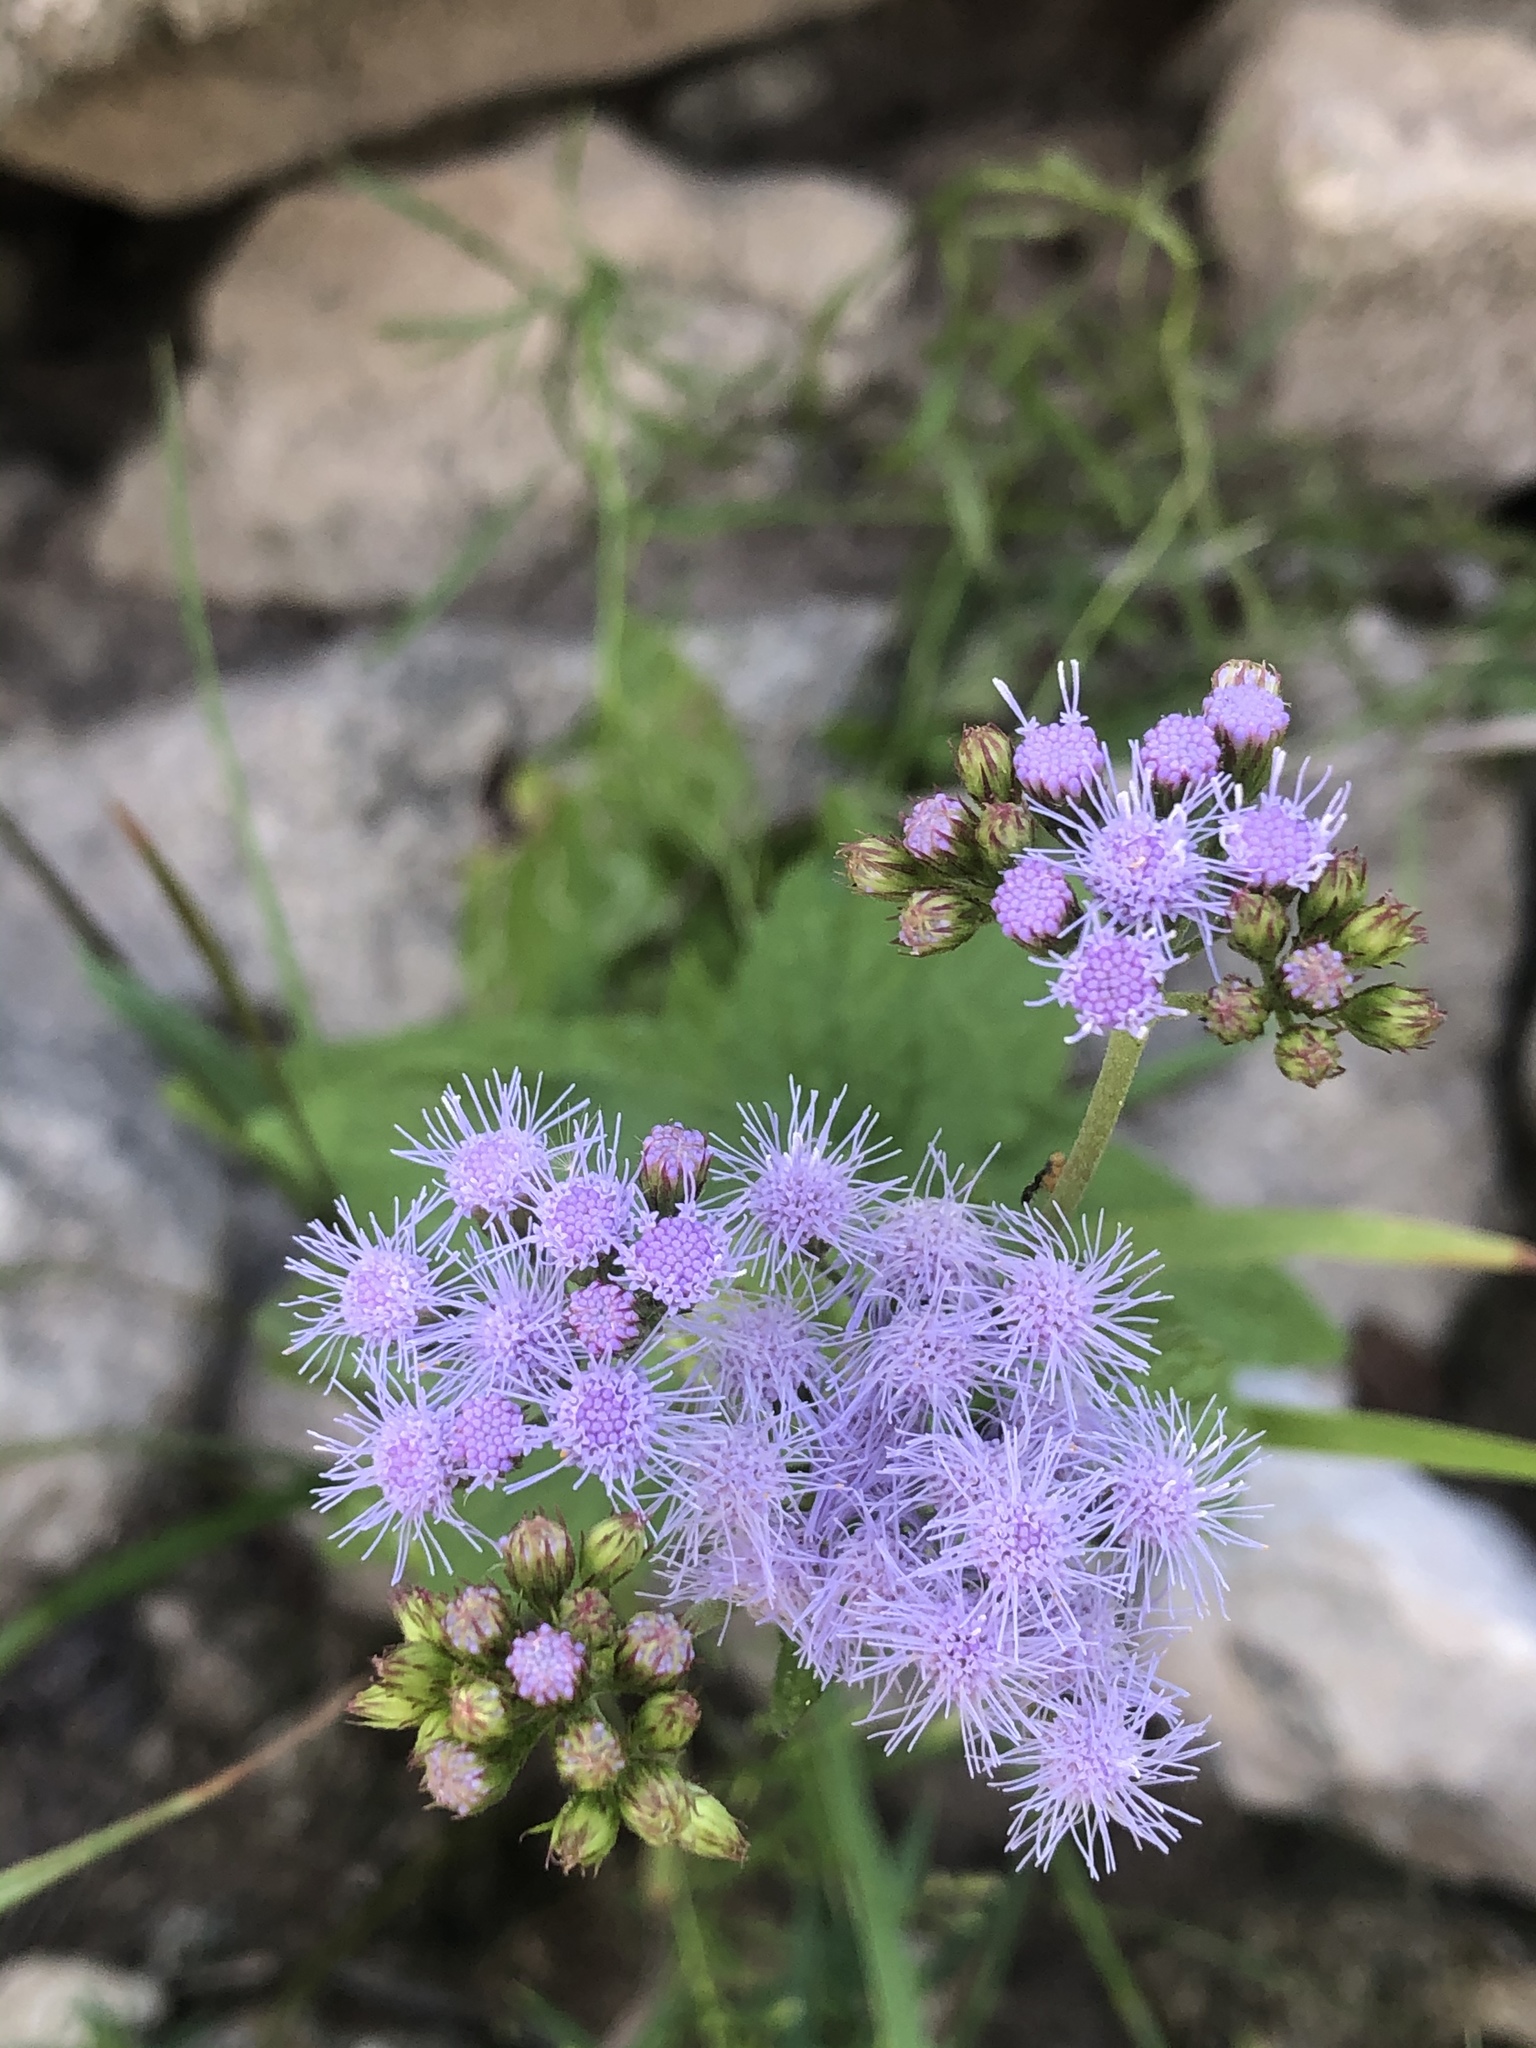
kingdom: Plantae
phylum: Tracheophyta
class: Magnoliopsida
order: Asterales
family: Asteraceae
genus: Conoclinium
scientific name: Conoclinium coelestinum
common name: Blue mistflower
